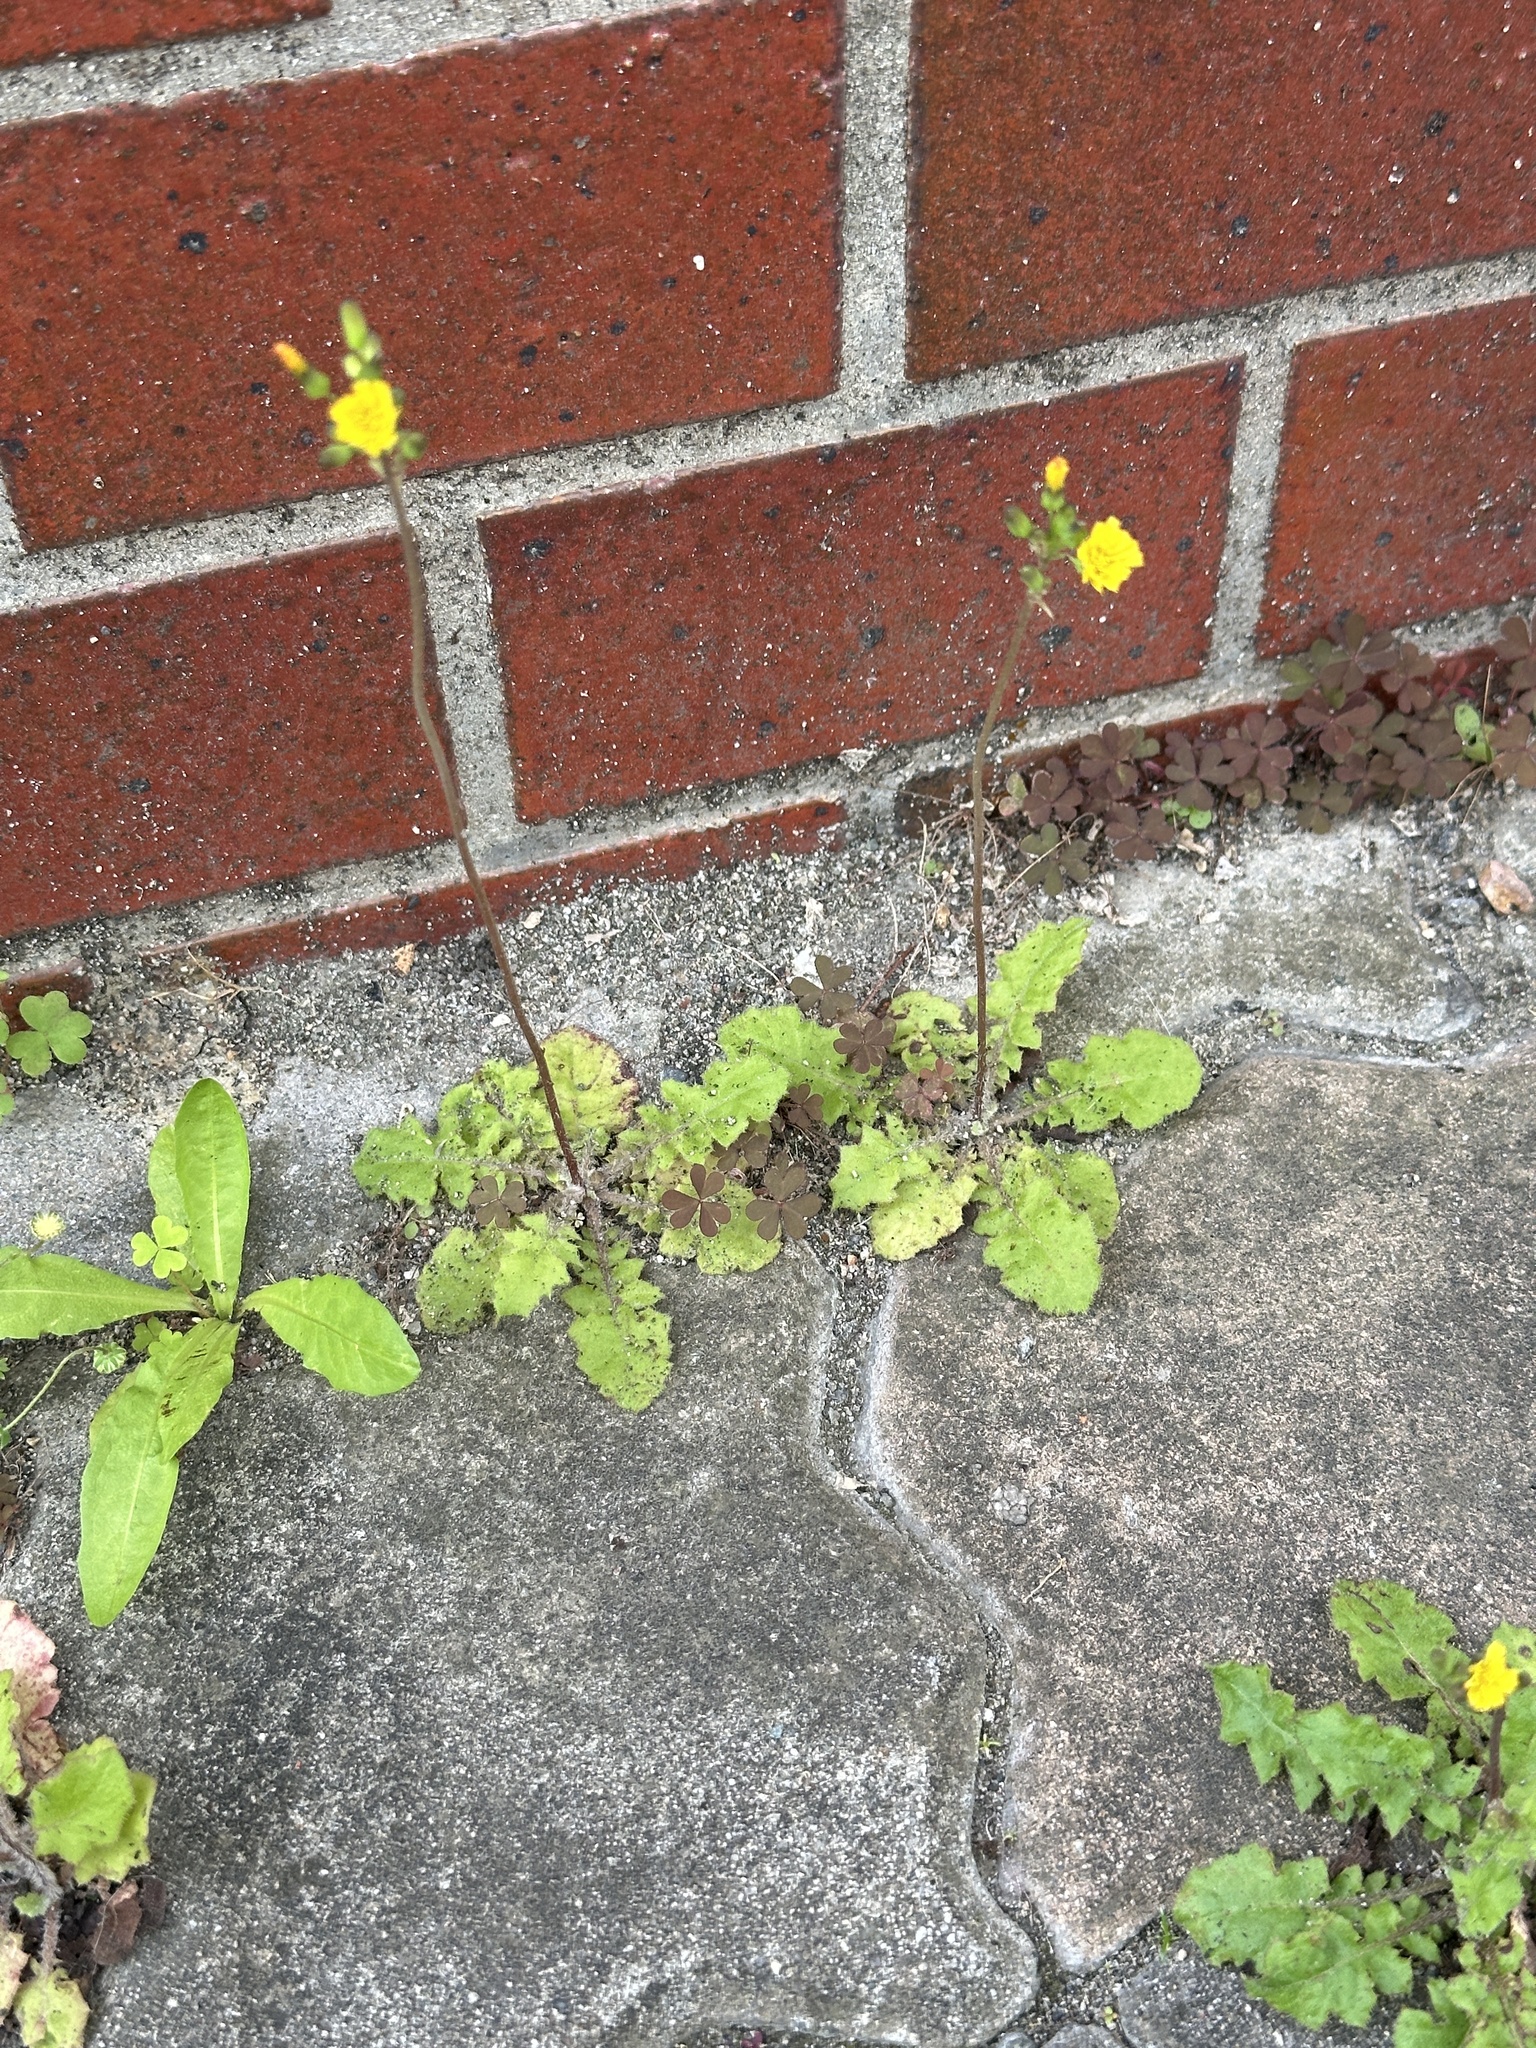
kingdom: Plantae
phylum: Tracheophyta
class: Magnoliopsida
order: Asterales
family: Asteraceae
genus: Youngia
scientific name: Youngia japonica
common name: Oriental false hawksbeard
